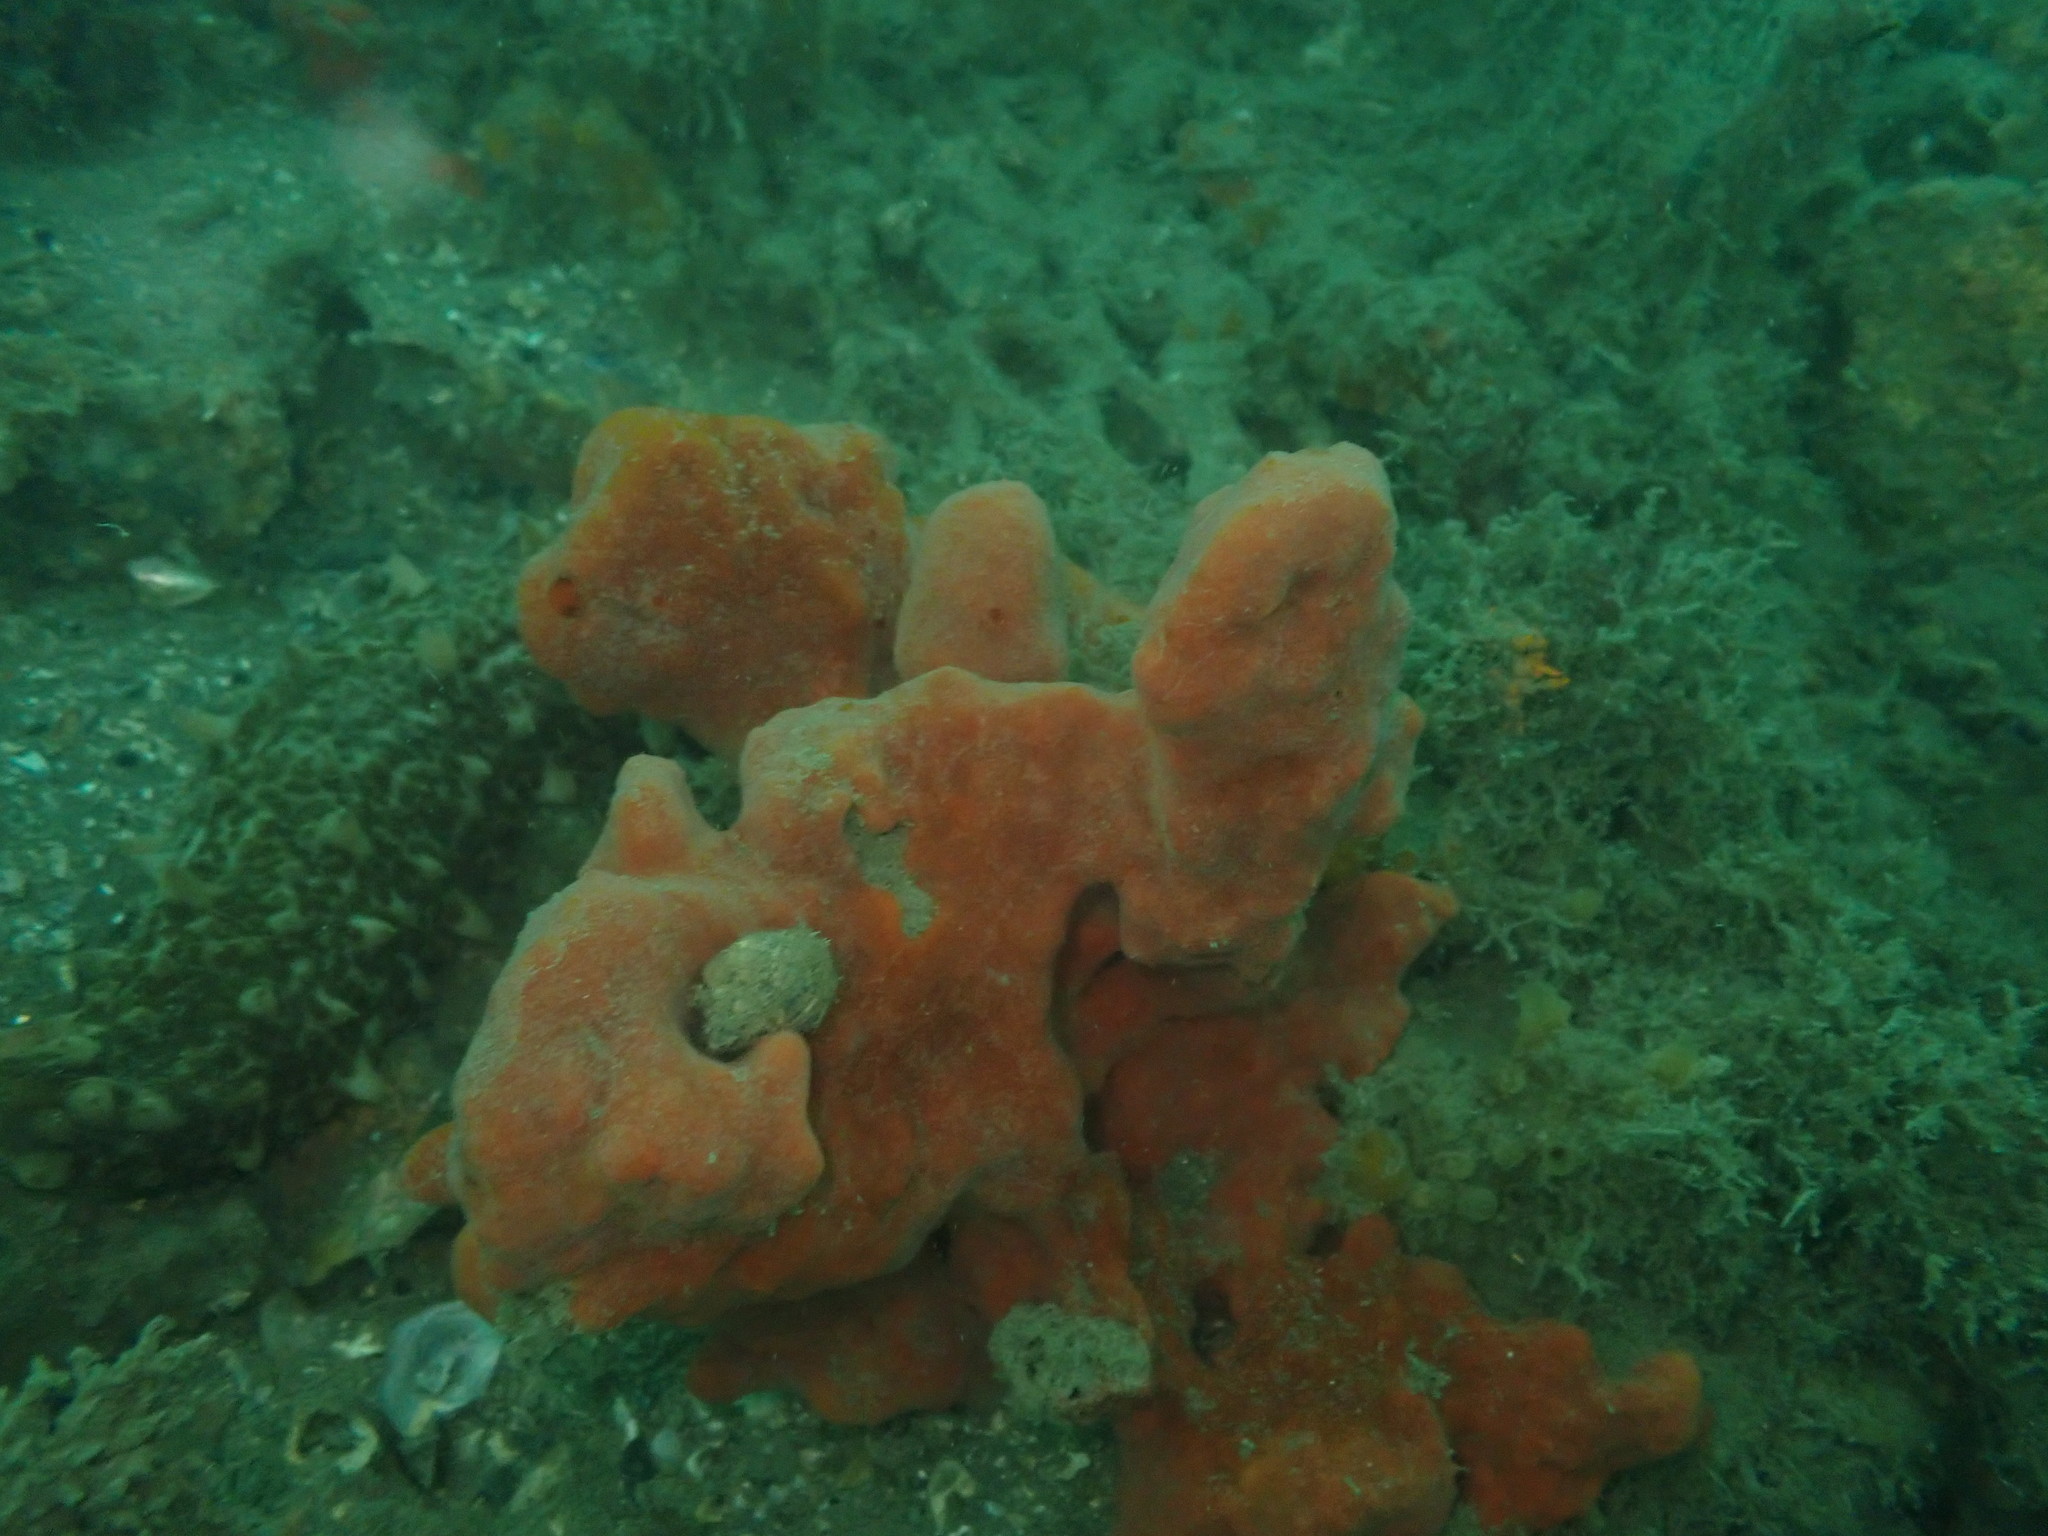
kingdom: Animalia
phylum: Porifera
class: Demospongiae
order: Poecilosclerida
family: Crellidae
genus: Crella
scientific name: Crella incrustans
